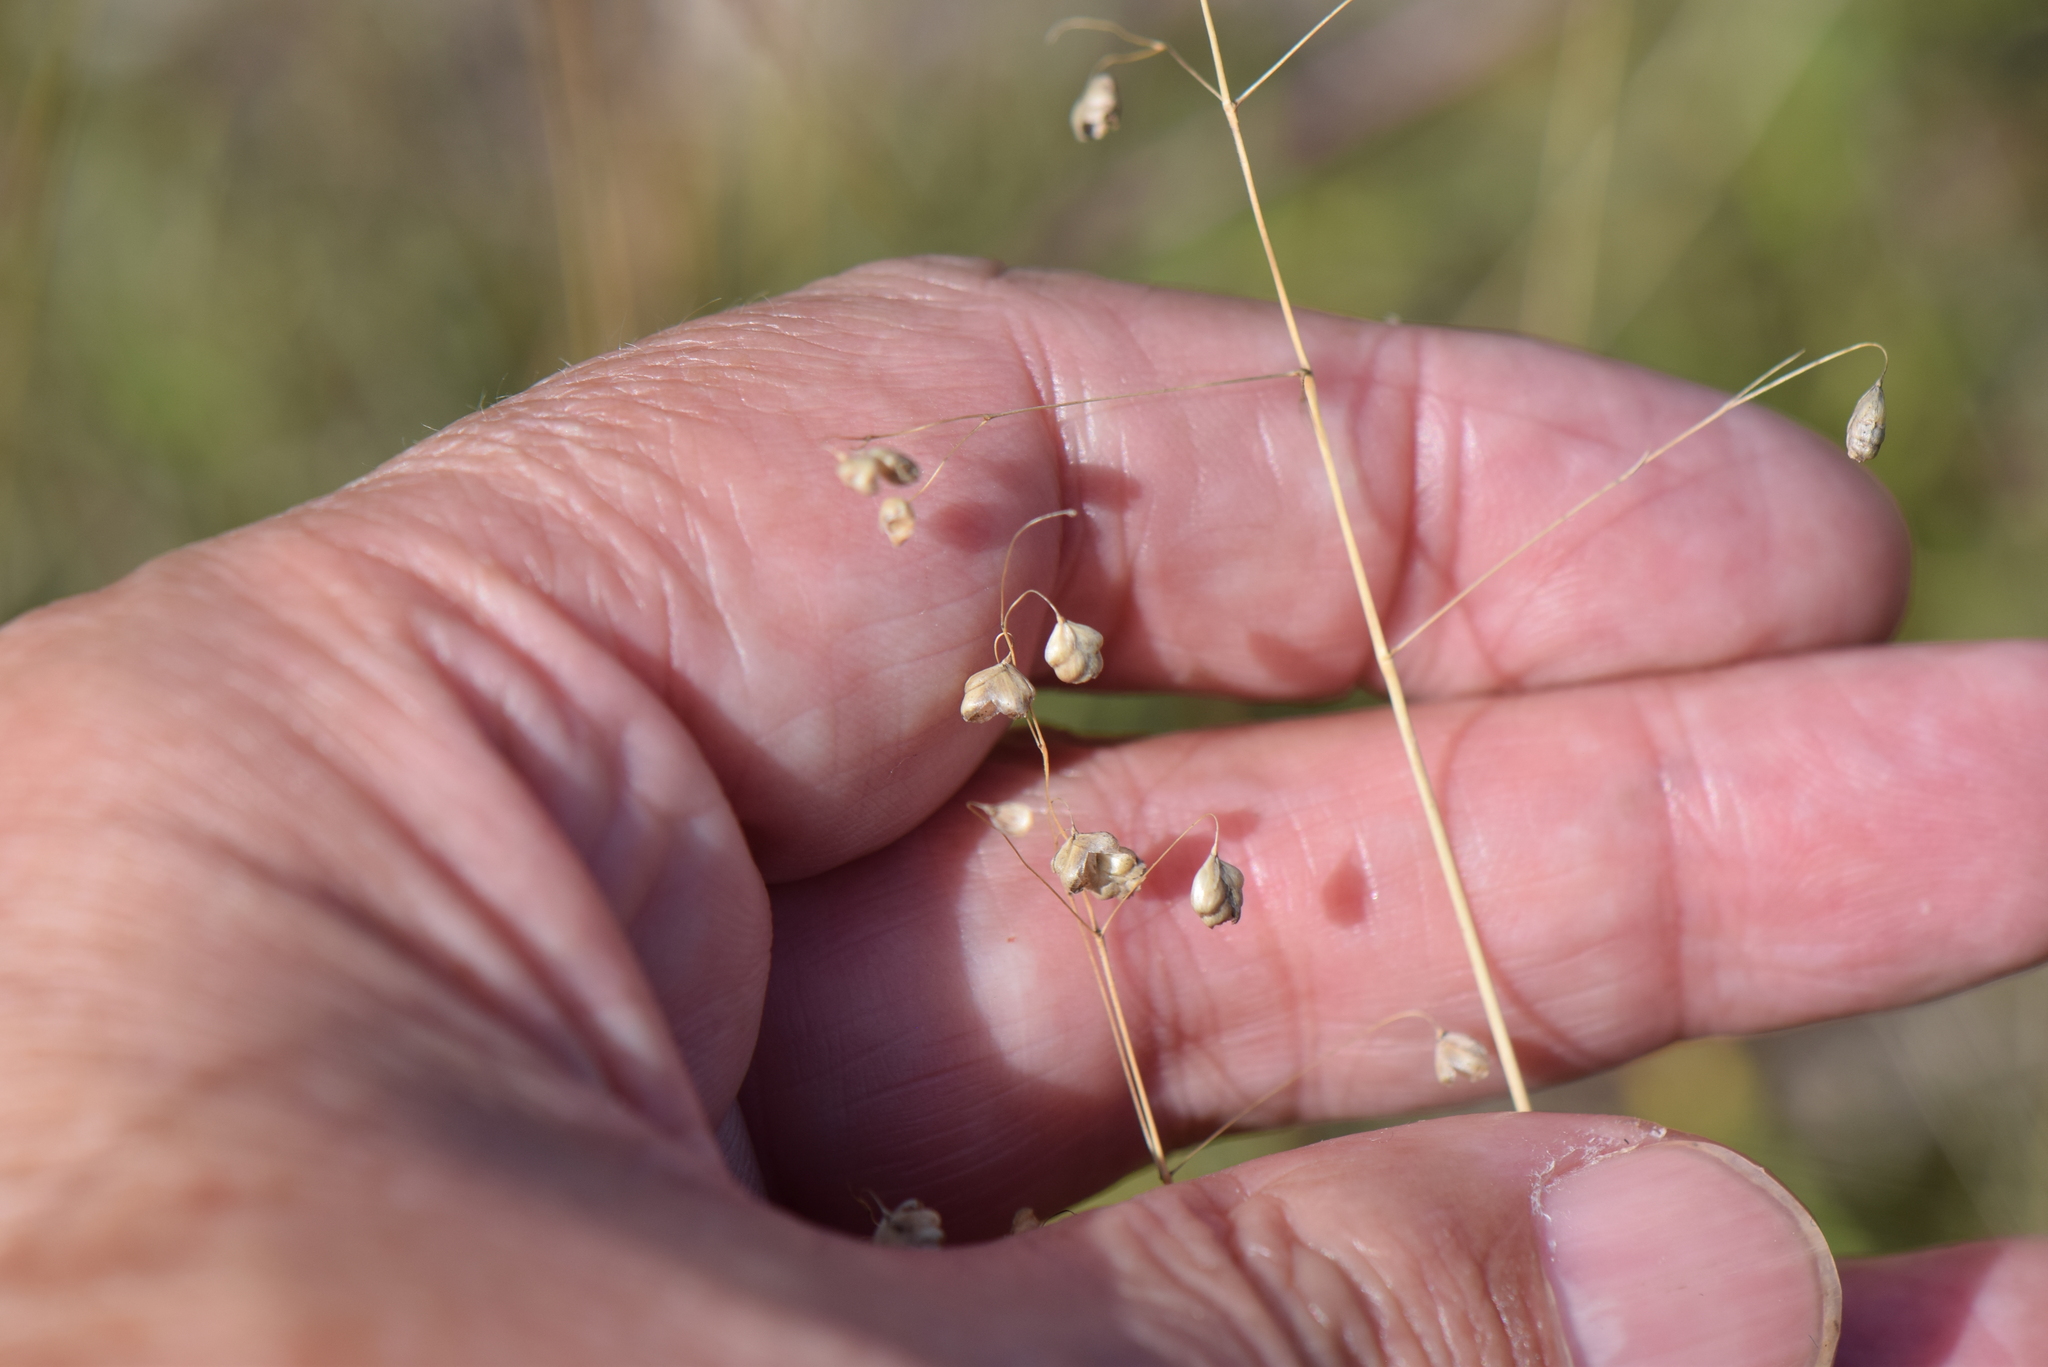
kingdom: Plantae
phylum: Tracheophyta
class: Liliopsida
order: Poales
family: Poaceae
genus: Briza
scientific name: Briza media
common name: Quaking grass
